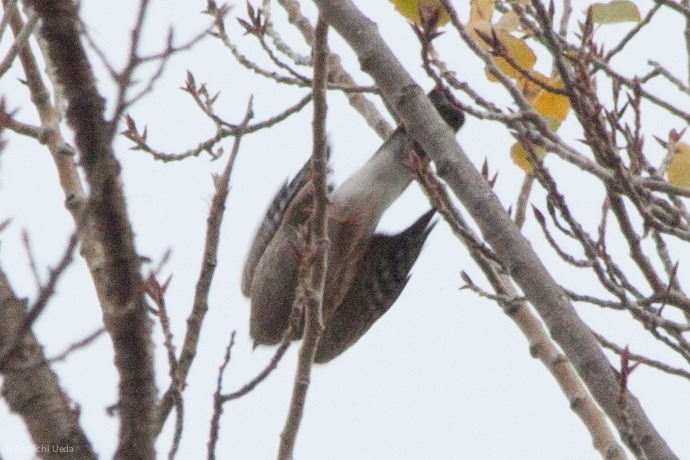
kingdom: Animalia
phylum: Chordata
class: Aves
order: Accipitriformes
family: Accipitridae
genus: Accipiter
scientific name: Accipiter striatus
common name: Sharp-shinned hawk
